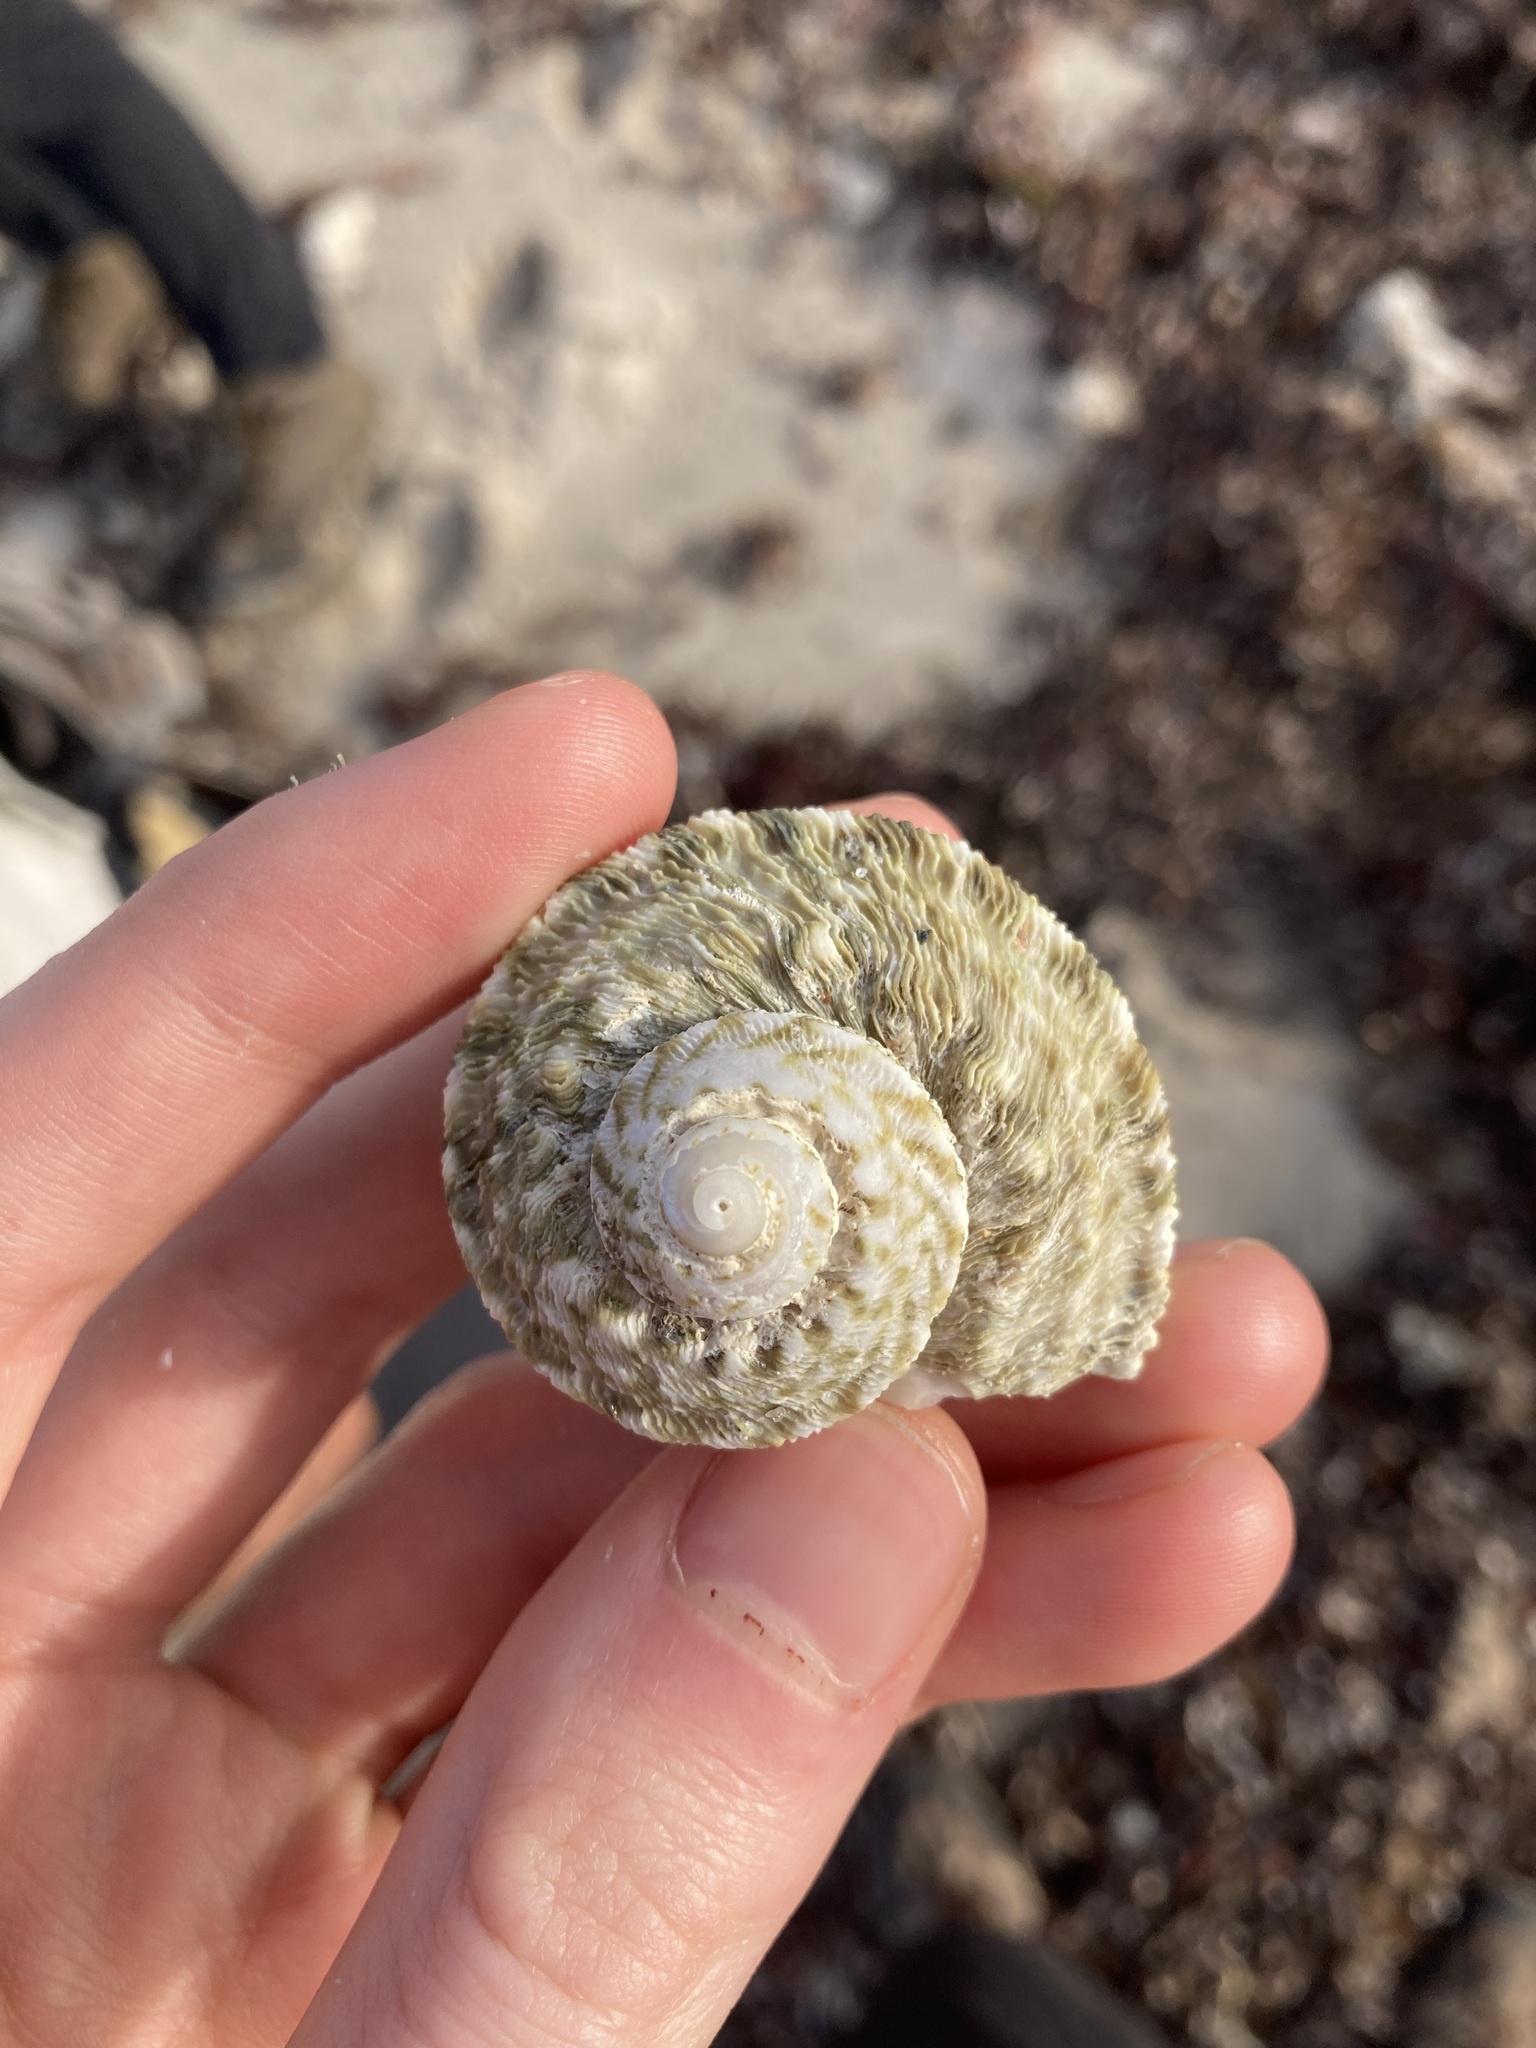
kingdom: Animalia
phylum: Mollusca
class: Gastropoda
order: Trochida
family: Turbinidae
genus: Lunella
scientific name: Lunella torquata
